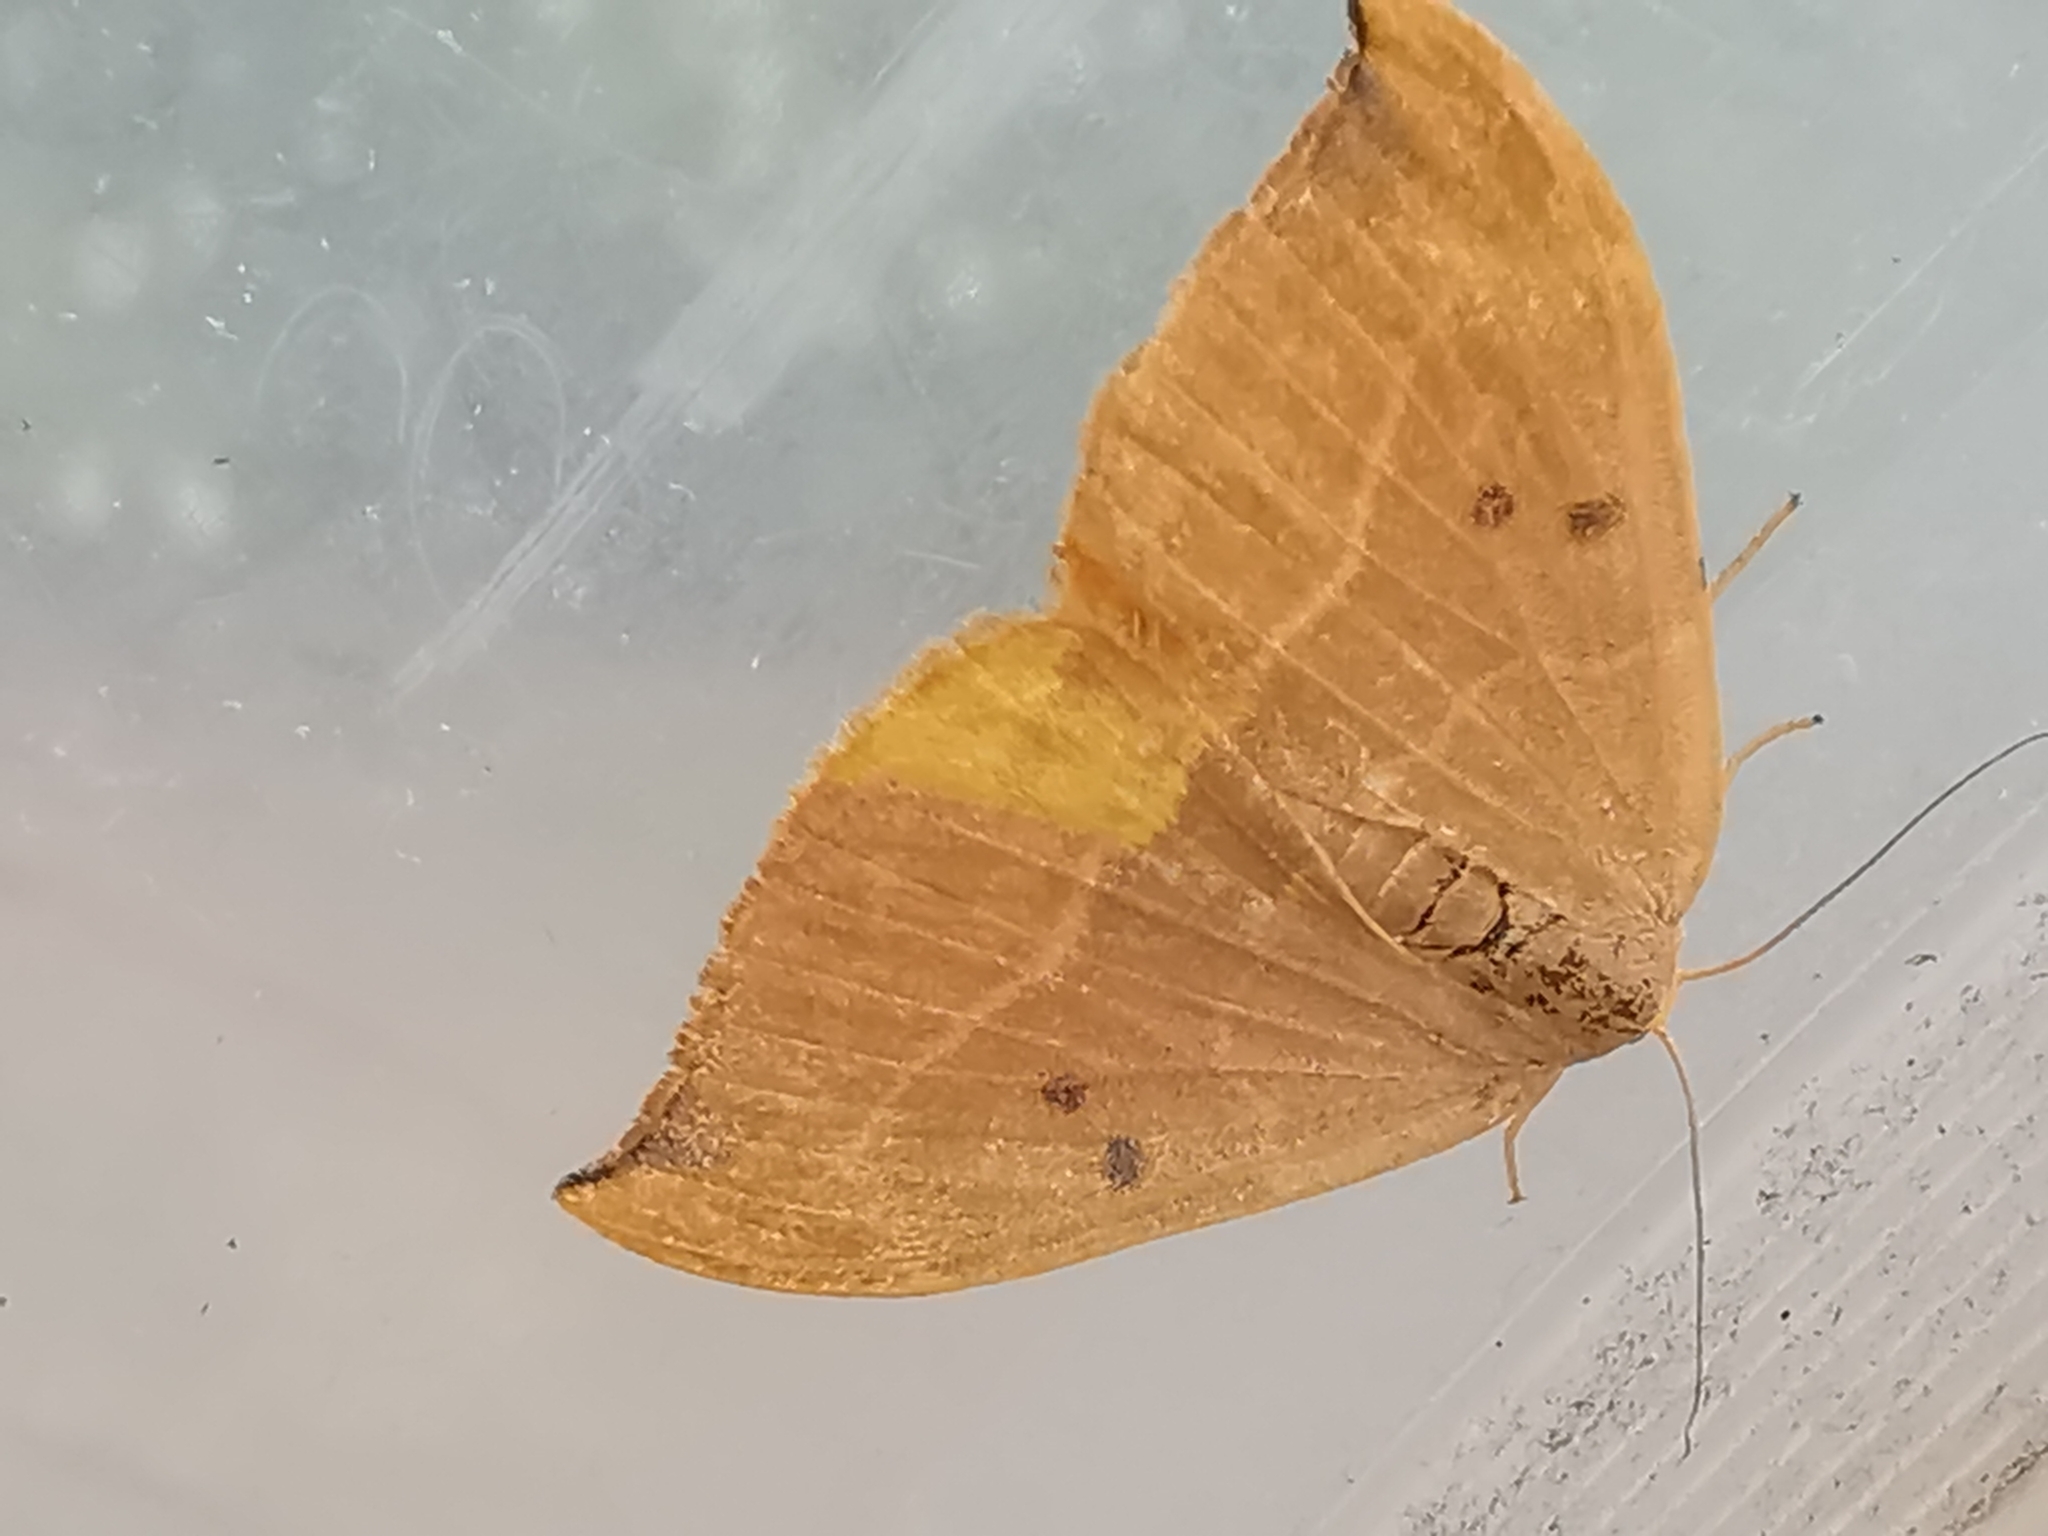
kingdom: Animalia
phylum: Arthropoda
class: Insecta
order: Lepidoptera
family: Drepanidae
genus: Watsonalla
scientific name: Watsonalla binaria
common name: Oak hook-tip
